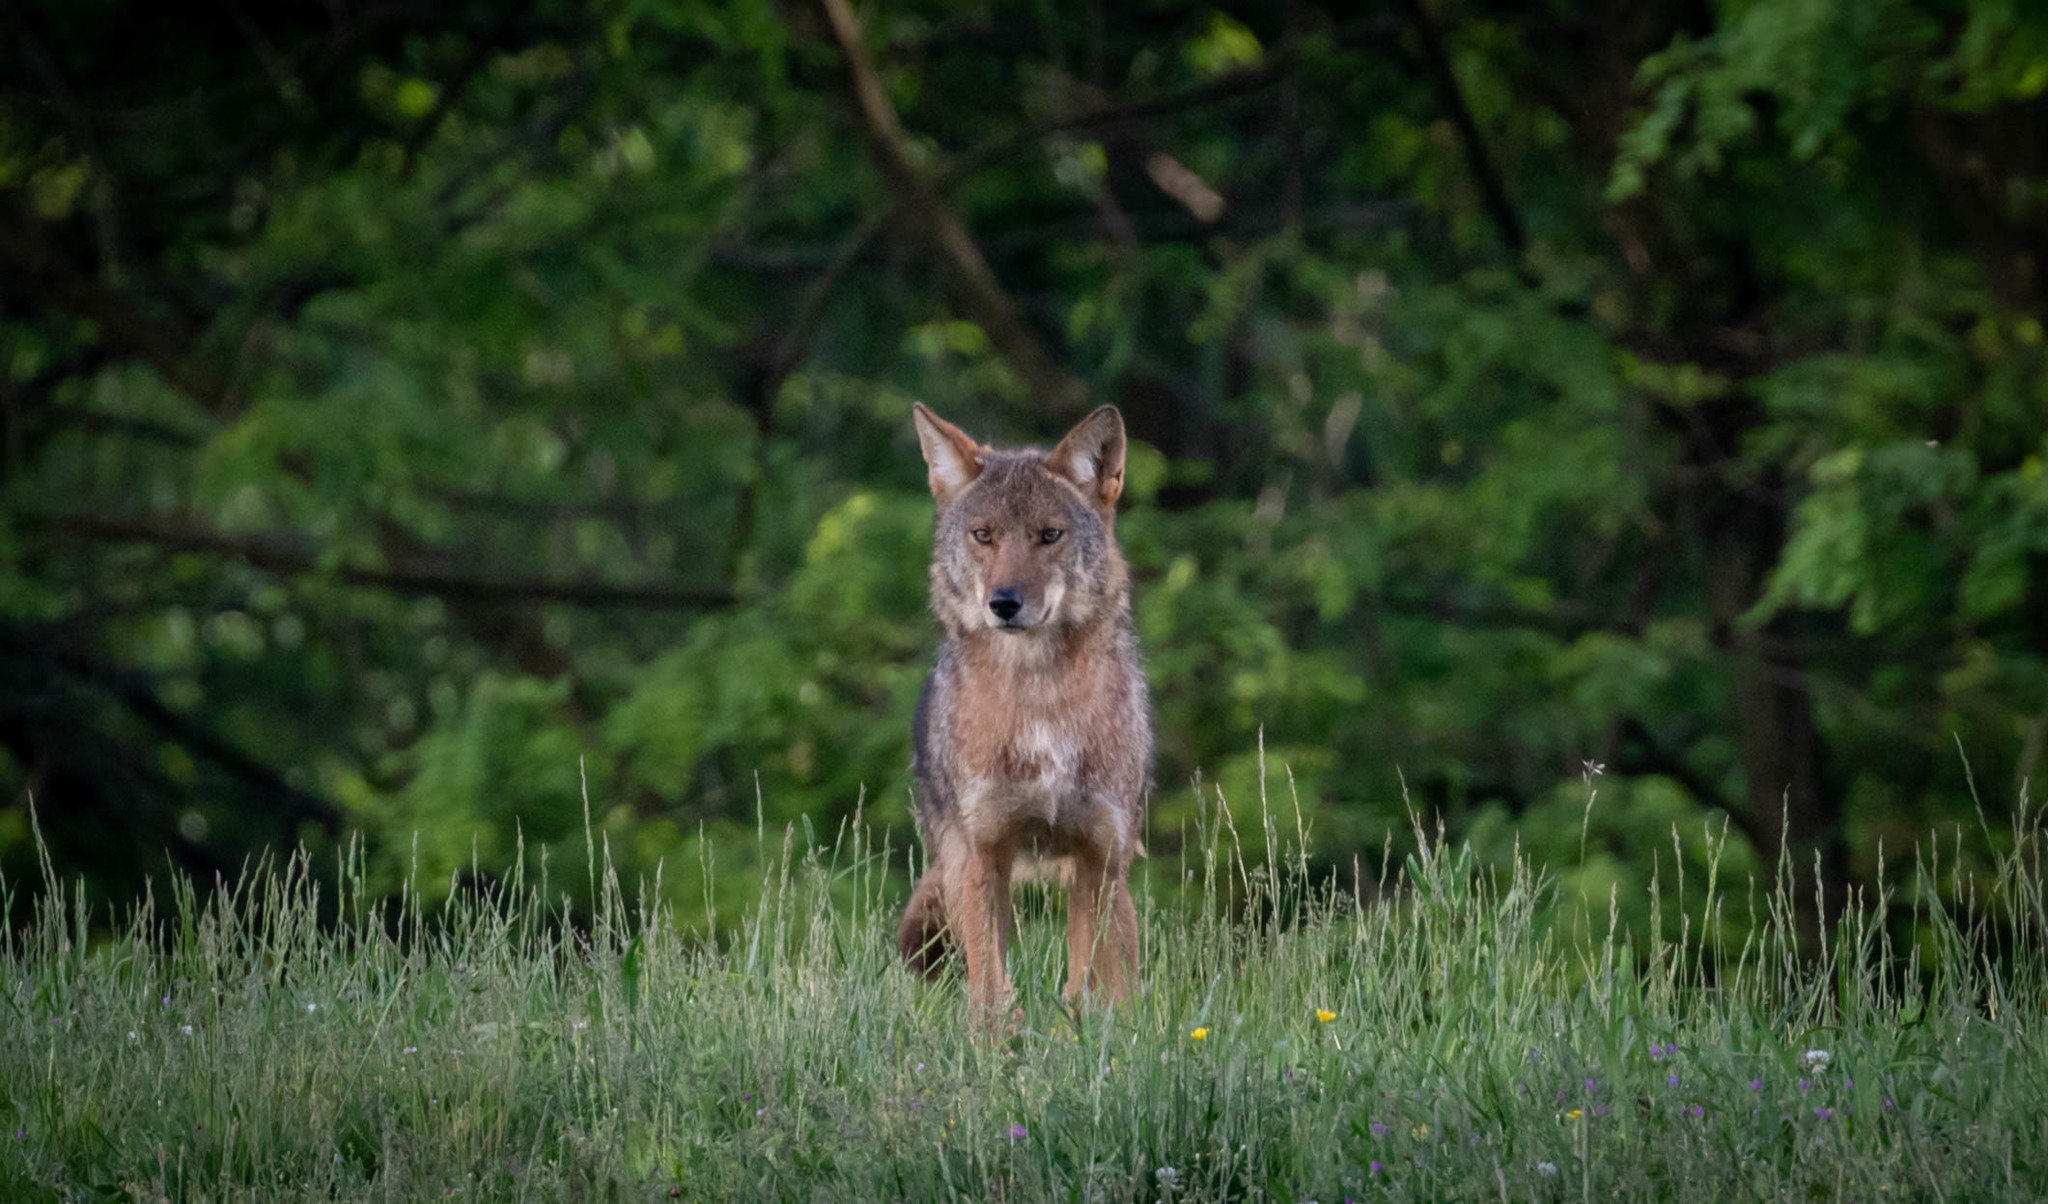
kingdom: Animalia
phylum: Chordata
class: Mammalia
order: Carnivora
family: Canidae
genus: Canis
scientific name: Canis latrans
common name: Coyote
